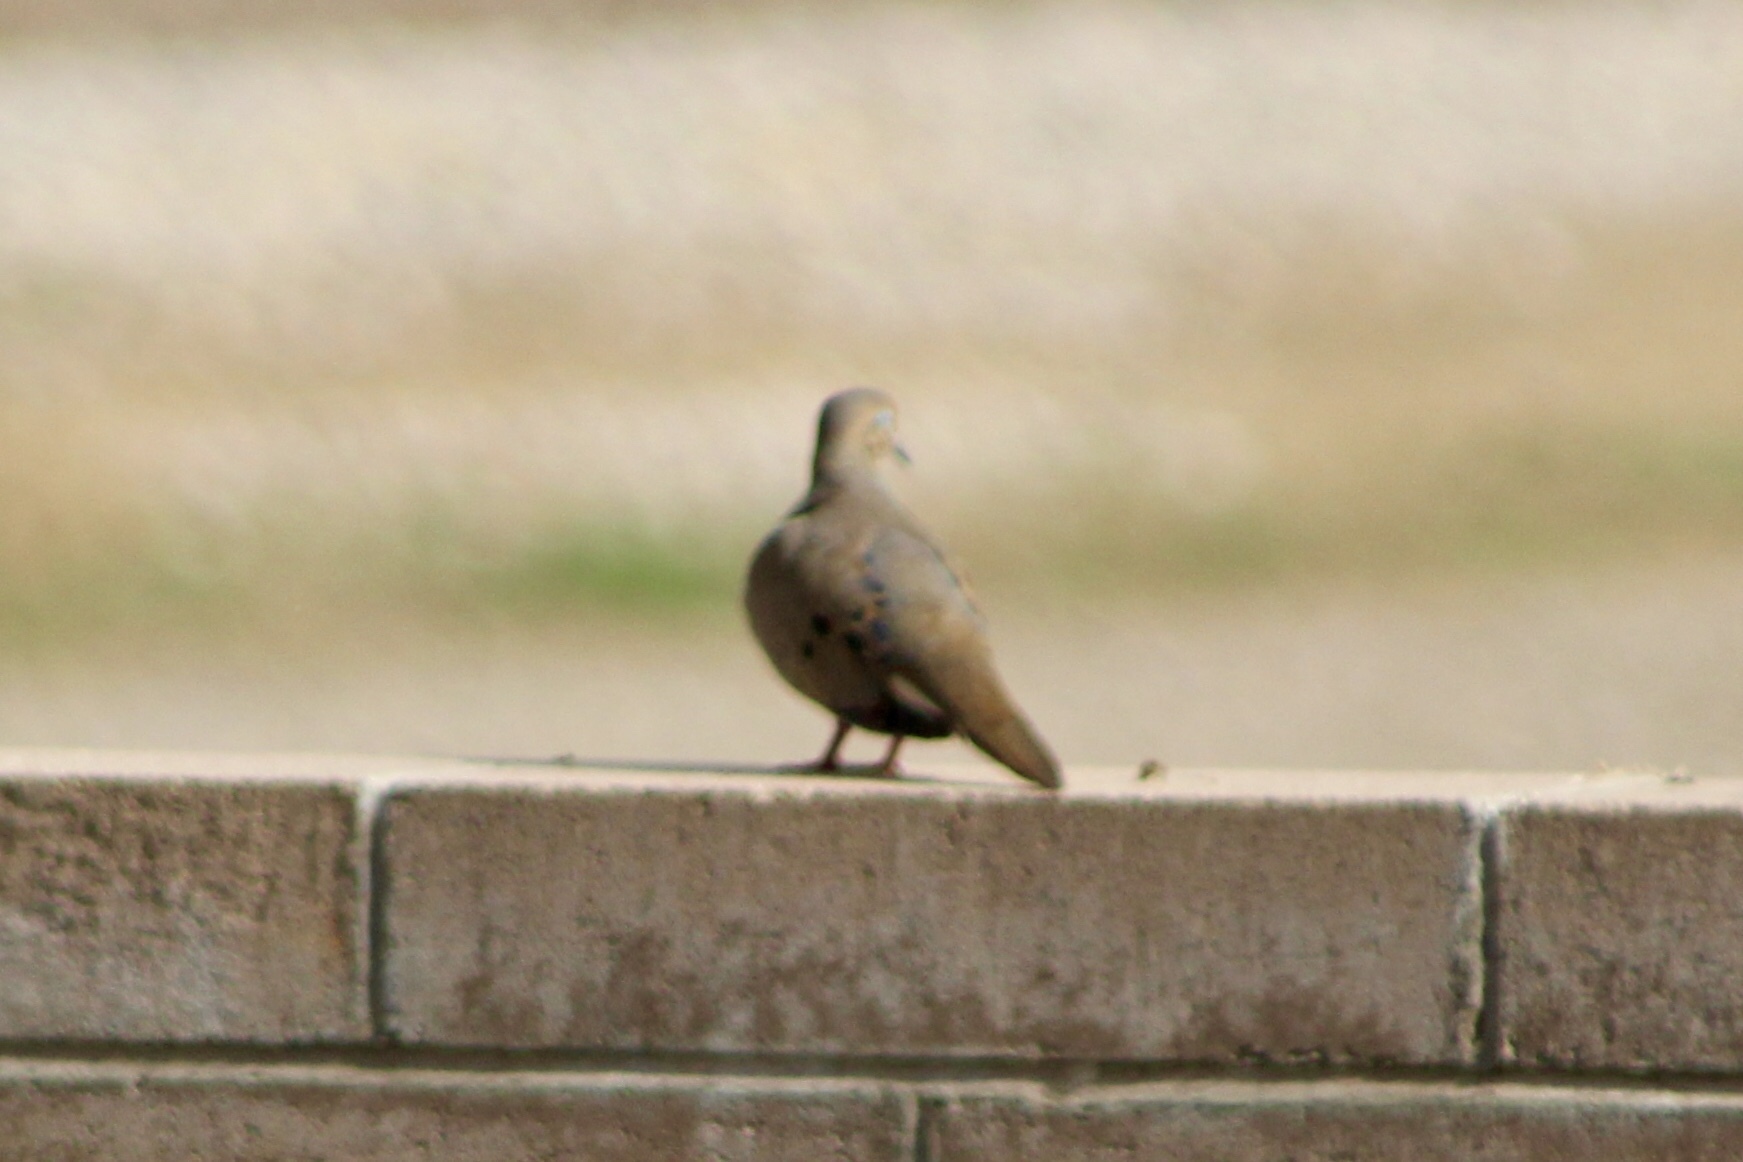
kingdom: Animalia
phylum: Chordata
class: Aves
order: Columbiformes
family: Columbidae
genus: Zenaida
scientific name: Zenaida macroura
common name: Mourning dove
